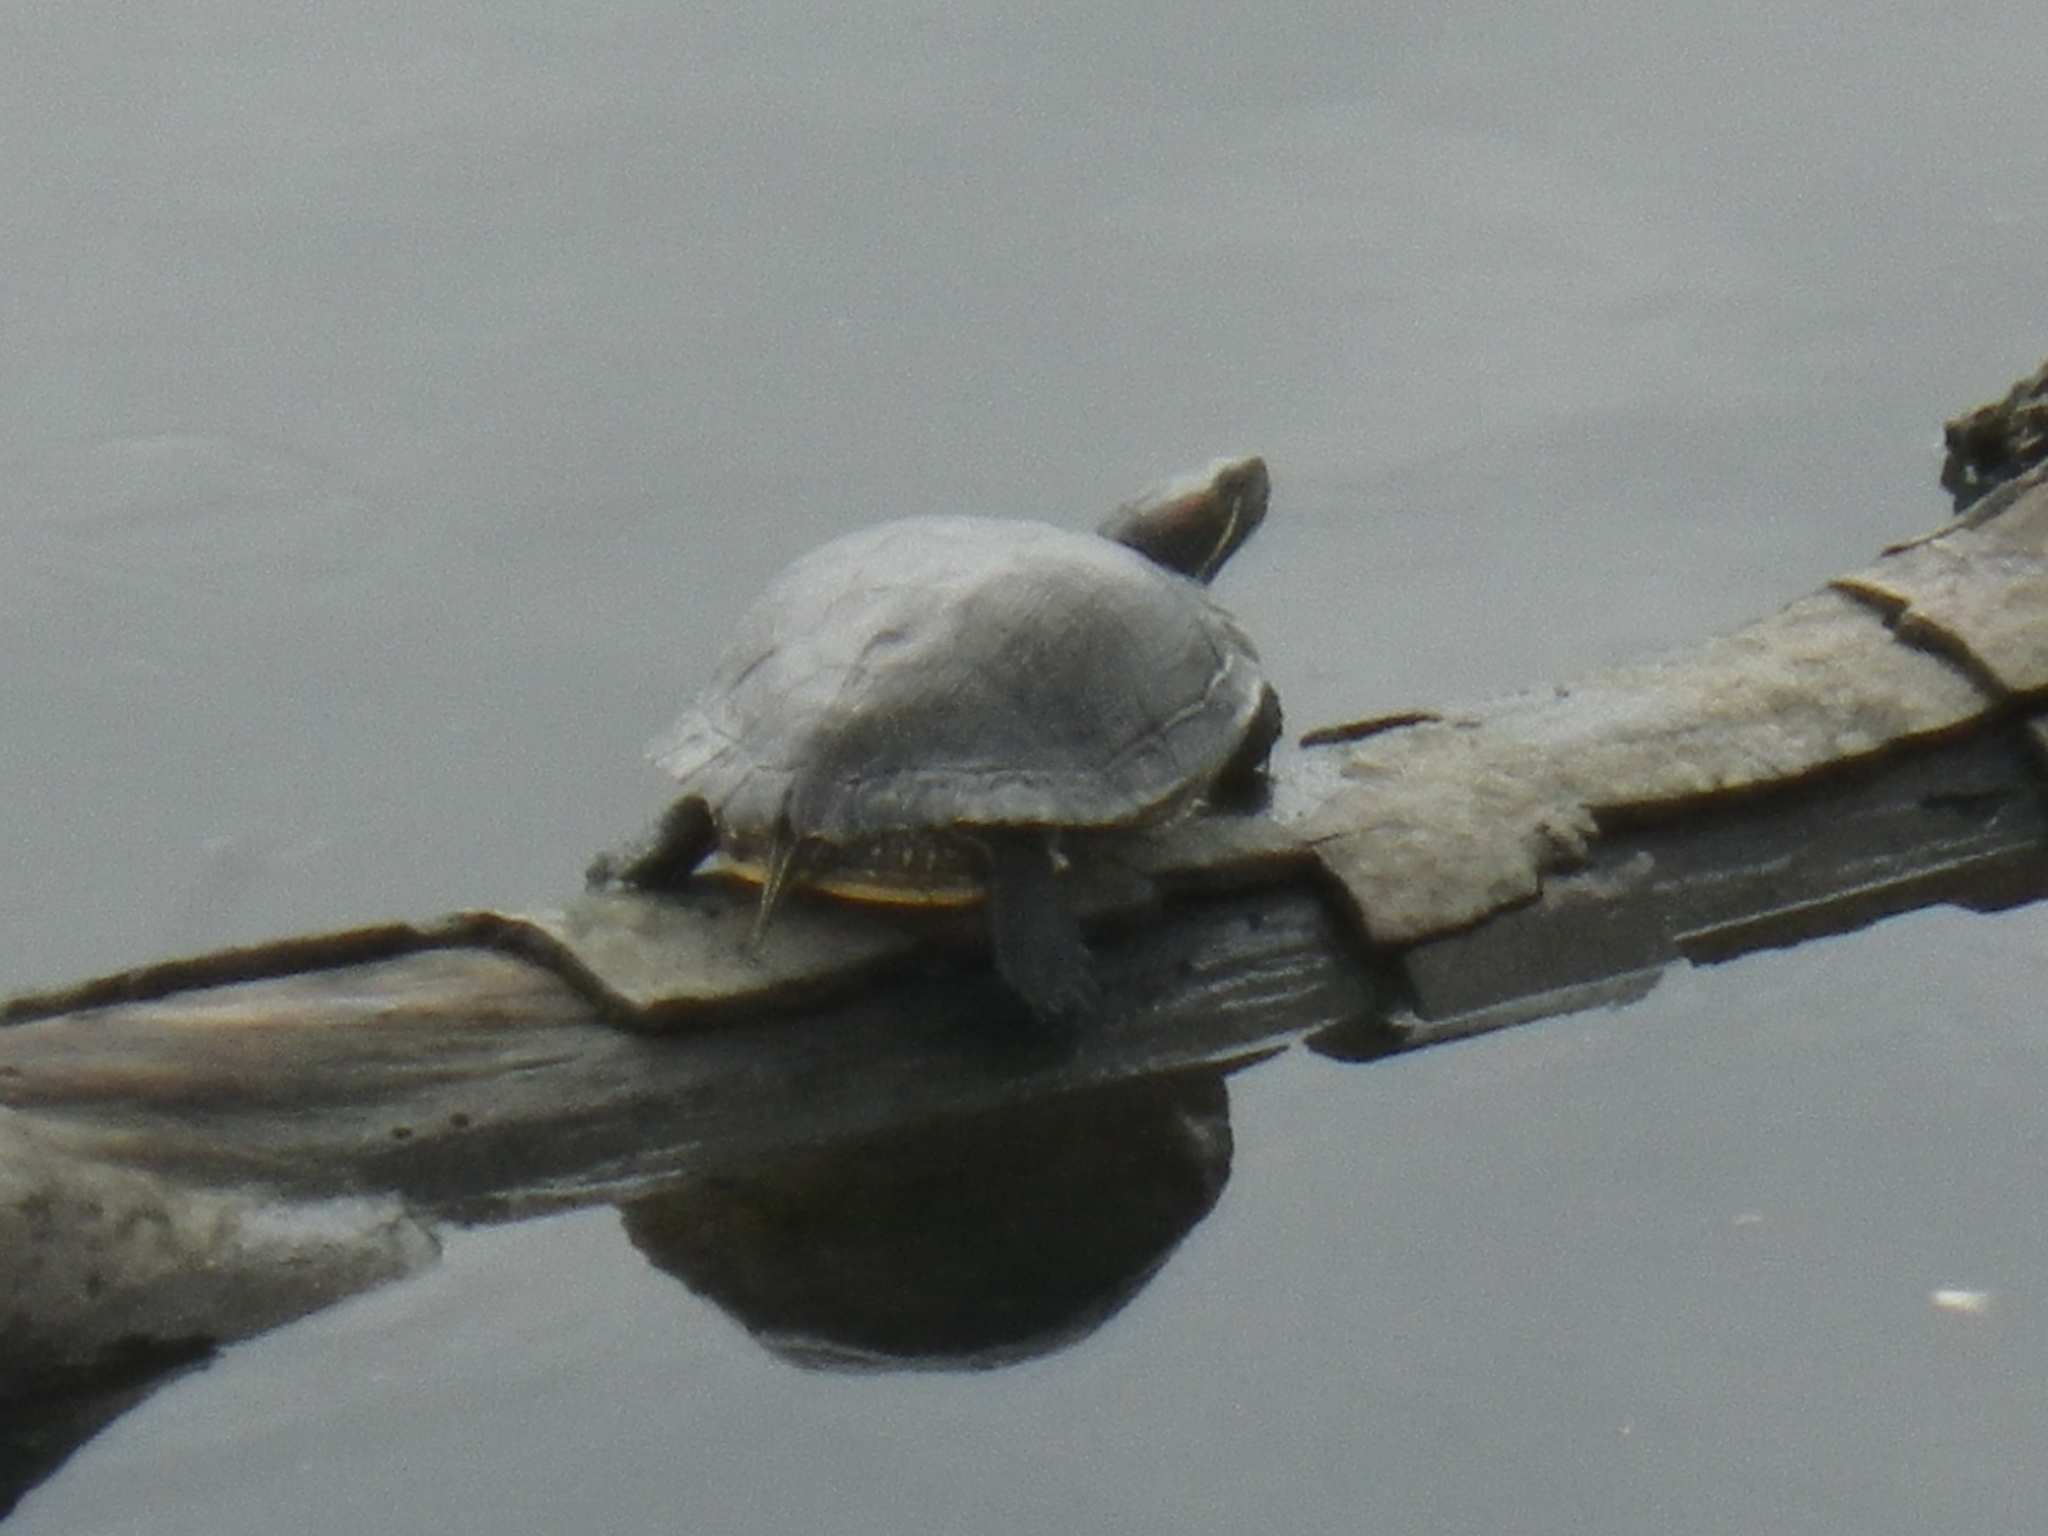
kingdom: Animalia
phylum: Chordata
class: Testudines
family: Emydidae
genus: Trachemys
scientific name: Trachemys scripta
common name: Slider
